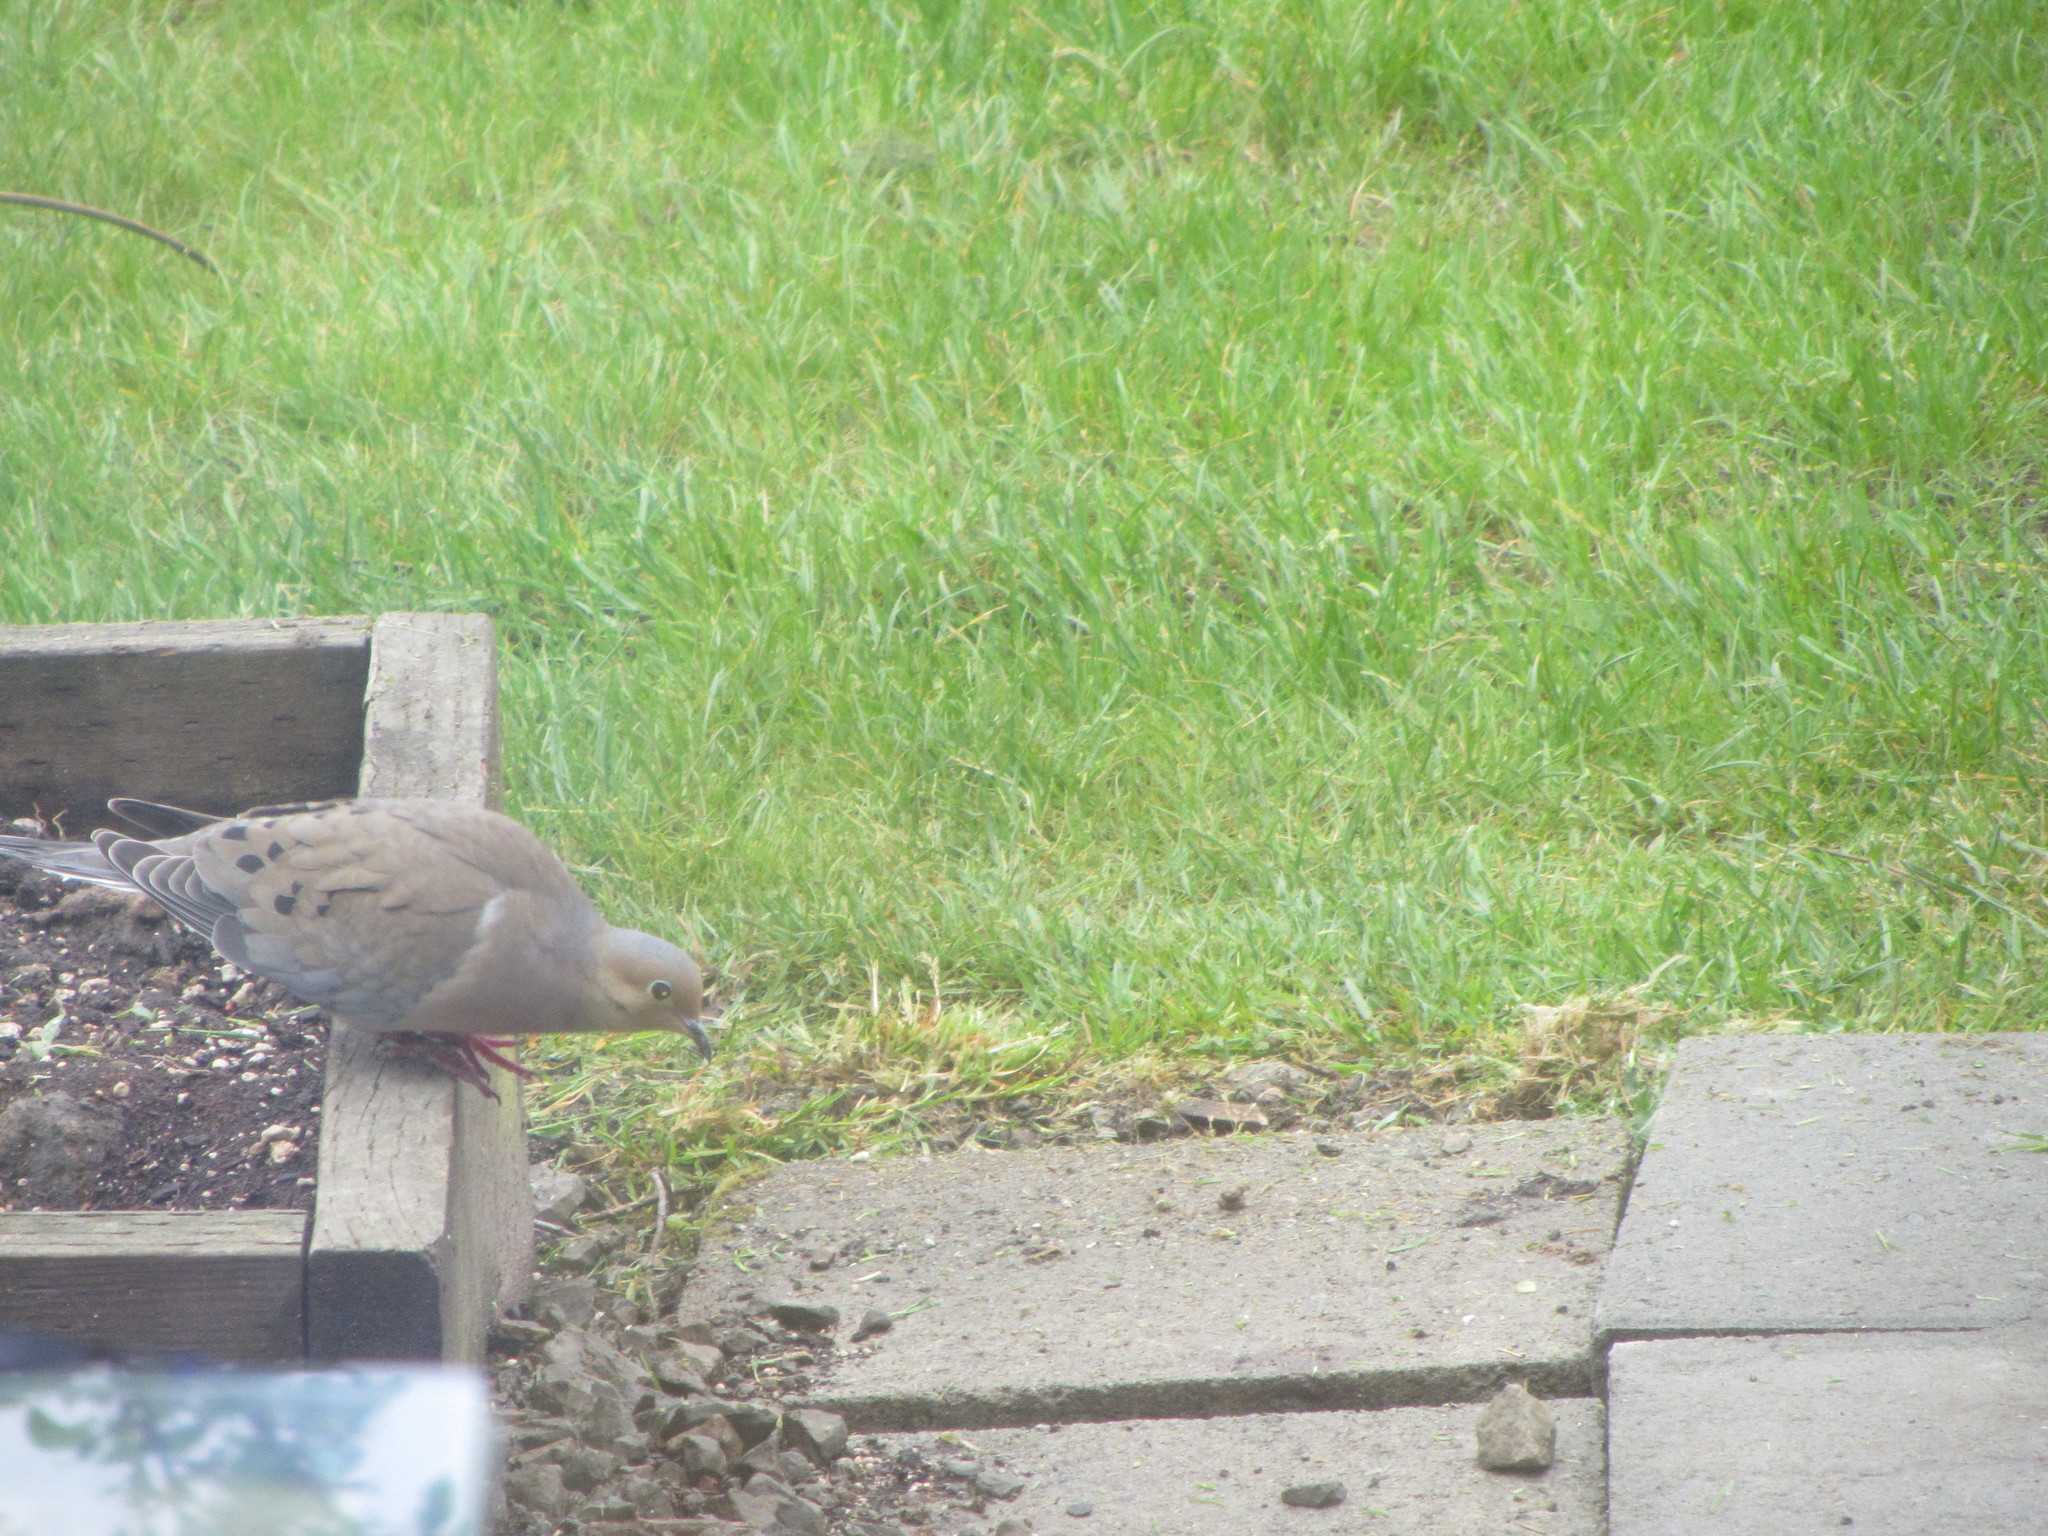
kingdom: Animalia
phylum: Chordata
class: Aves
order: Columbiformes
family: Columbidae
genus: Zenaida
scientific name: Zenaida macroura
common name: Mourning dove
